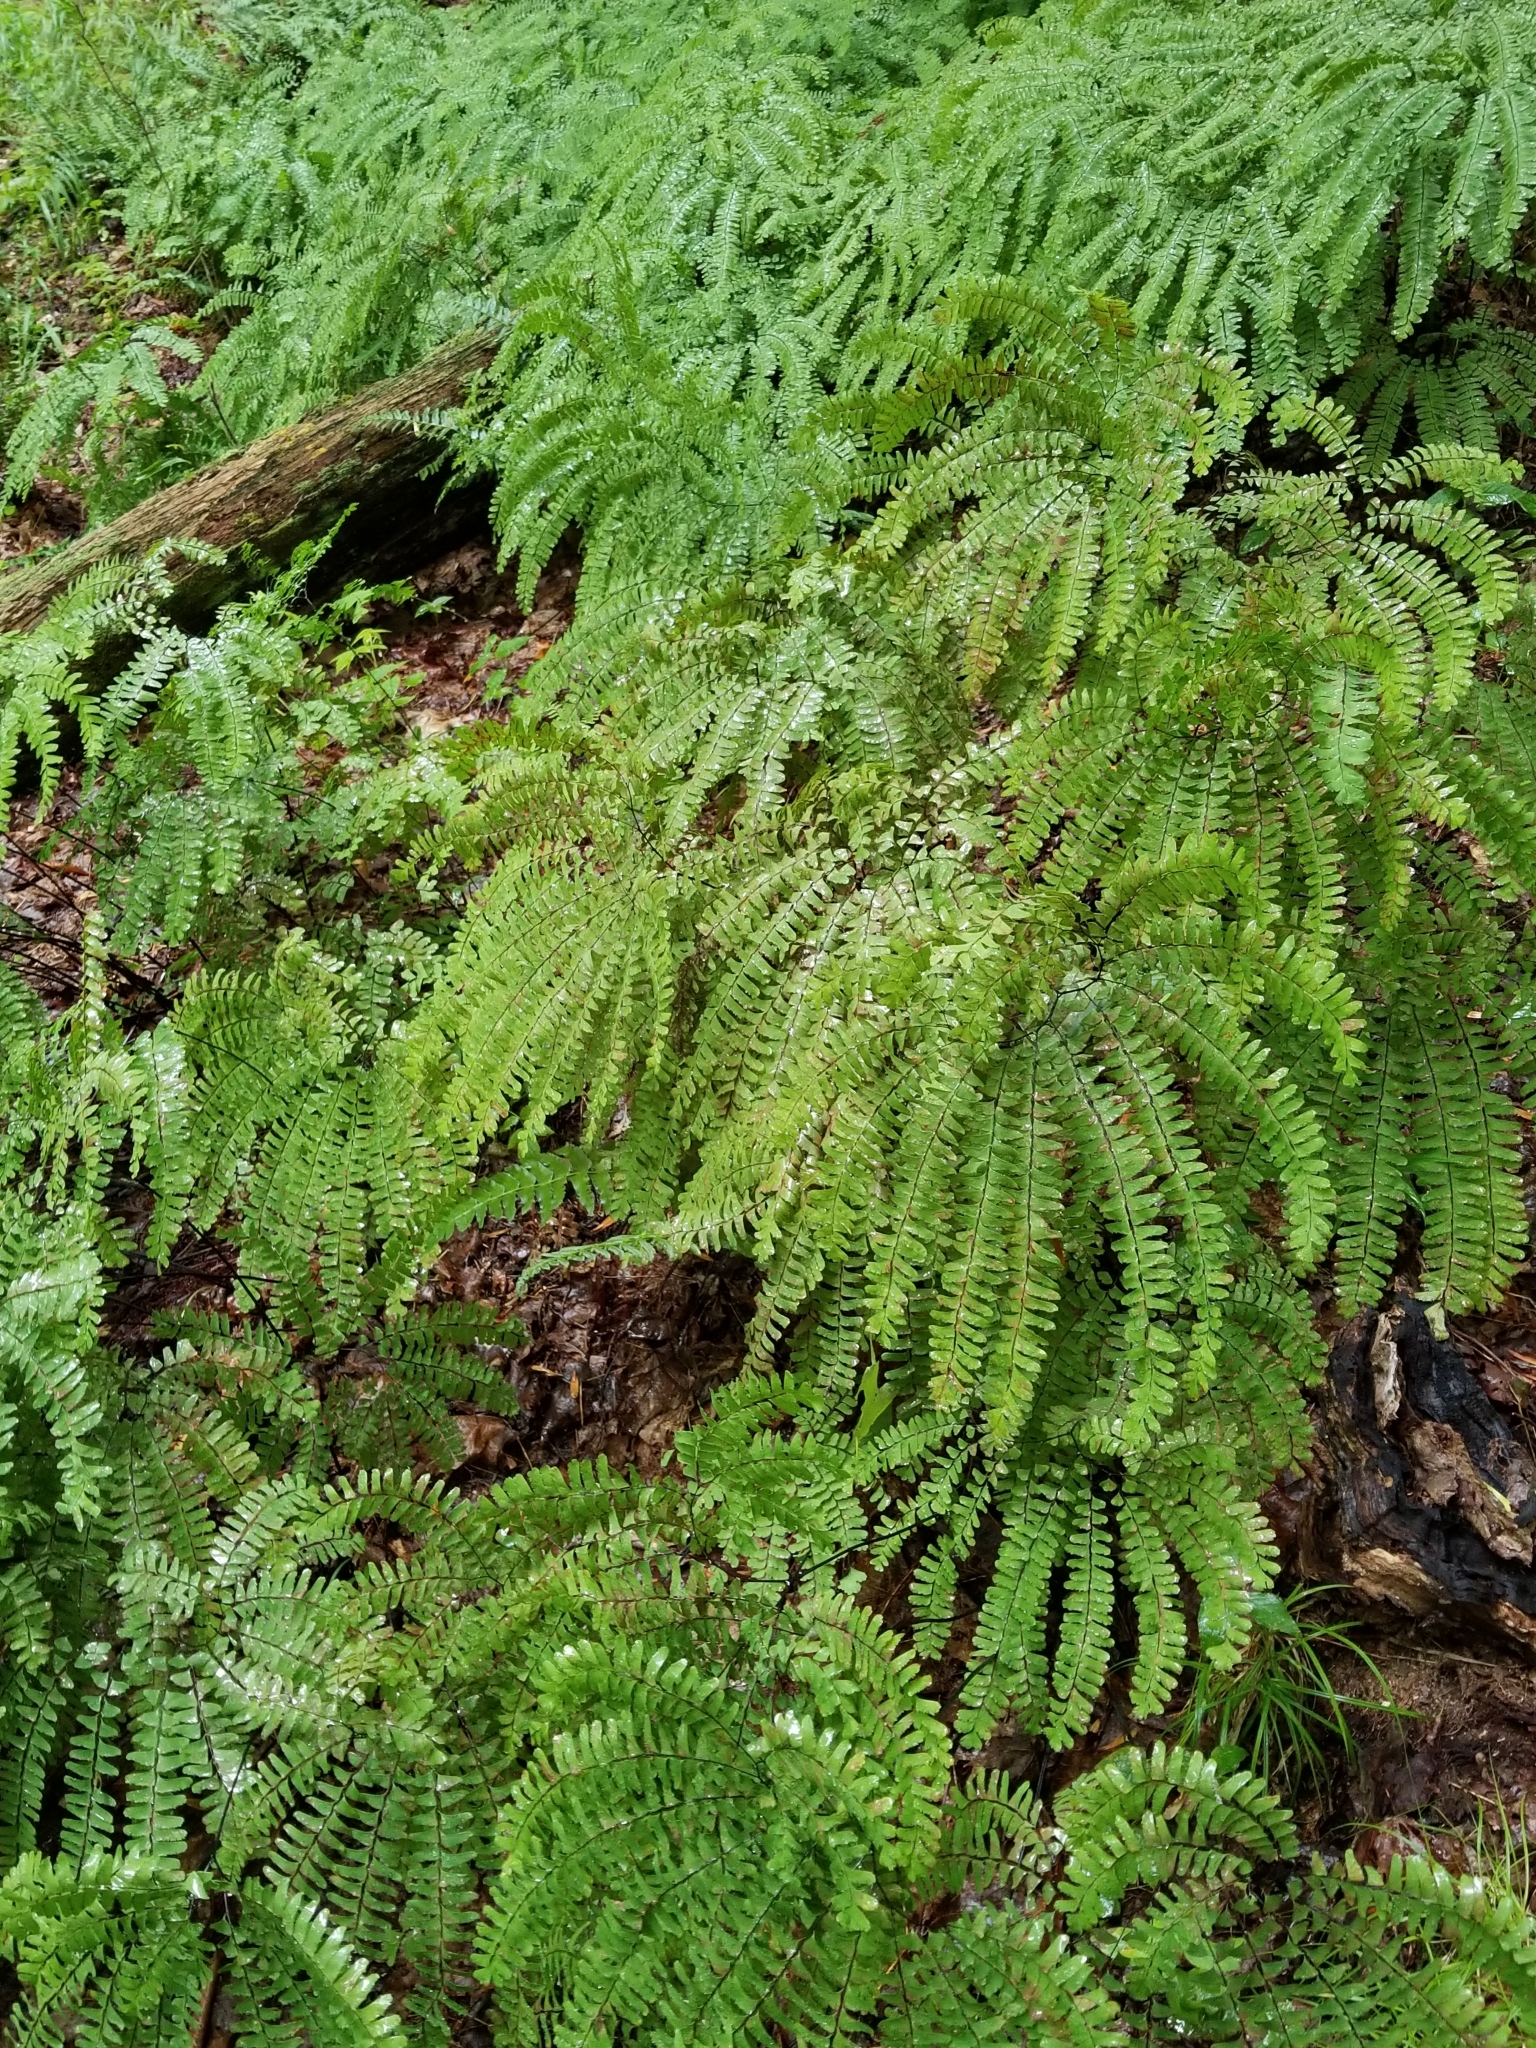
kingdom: Plantae
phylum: Tracheophyta
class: Polypodiopsida
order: Polypodiales
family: Pteridaceae
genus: Adiantum
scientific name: Adiantum pedatum
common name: Five-finger fern
